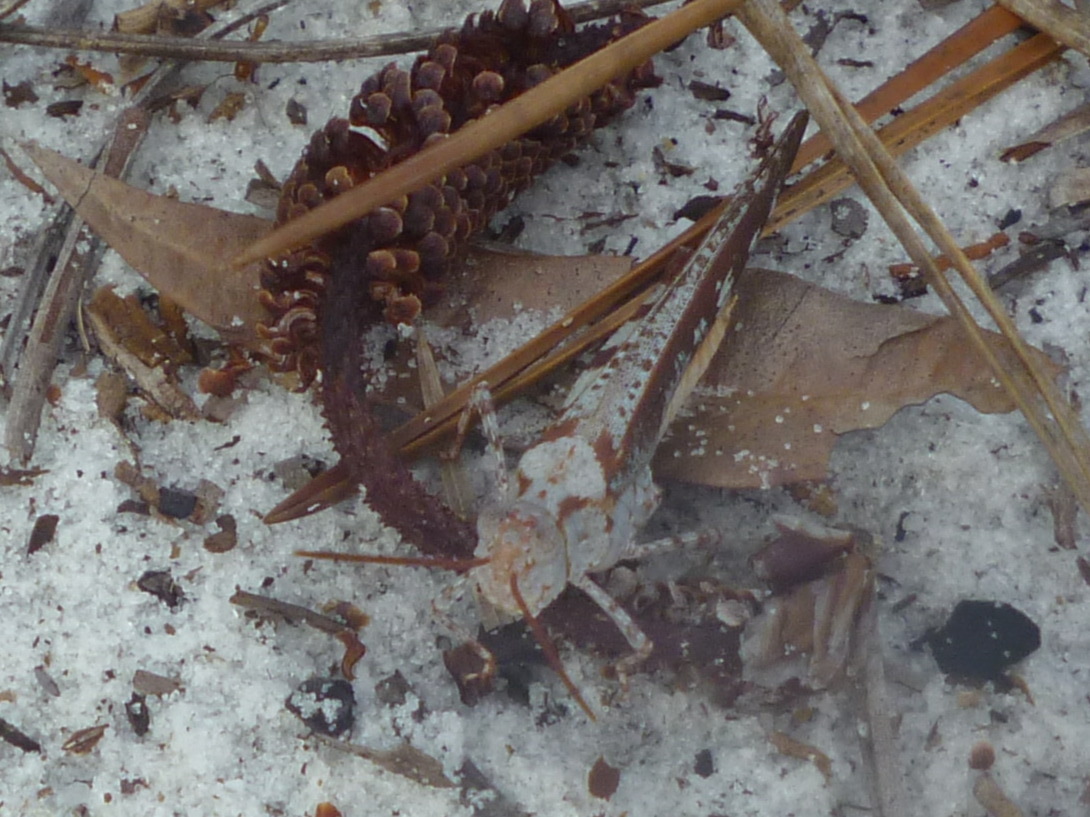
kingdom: Animalia
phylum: Arthropoda
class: Insecta
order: Orthoptera
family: Acrididae
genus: Spharagemon
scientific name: Spharagemon marmoratum
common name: Marbled grasshopper
